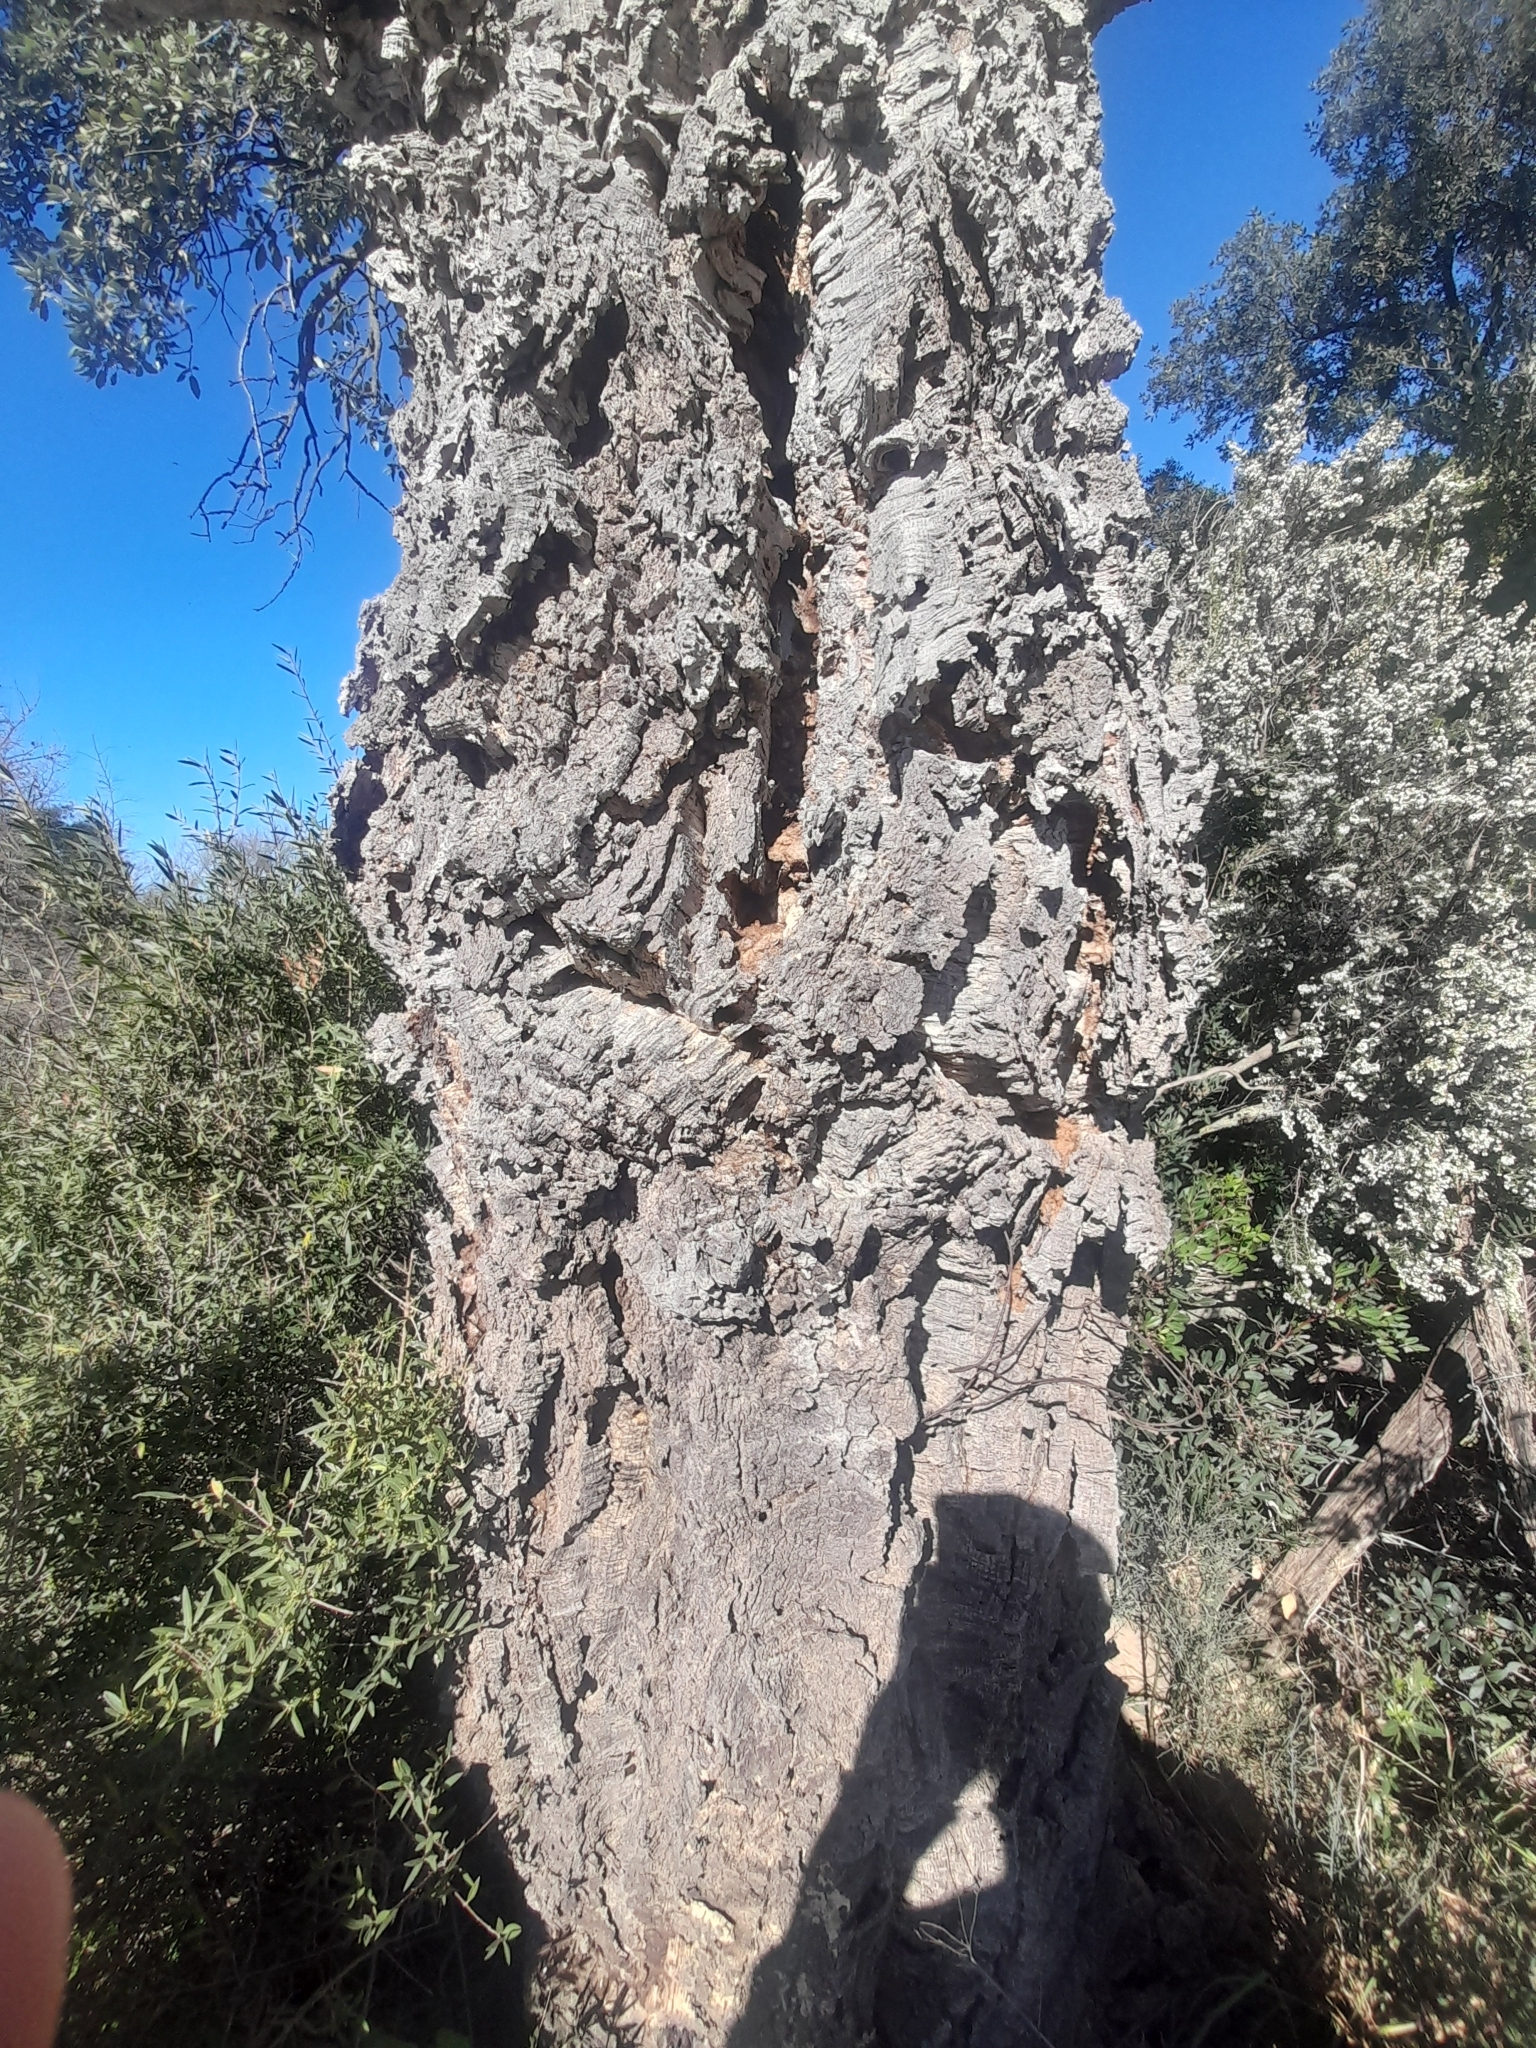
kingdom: Plantae
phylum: Tracheophyta
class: Magnoliopsida
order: Fagales
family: Fagaceae
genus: Quercus
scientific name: Quercus suber
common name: Cork oak
